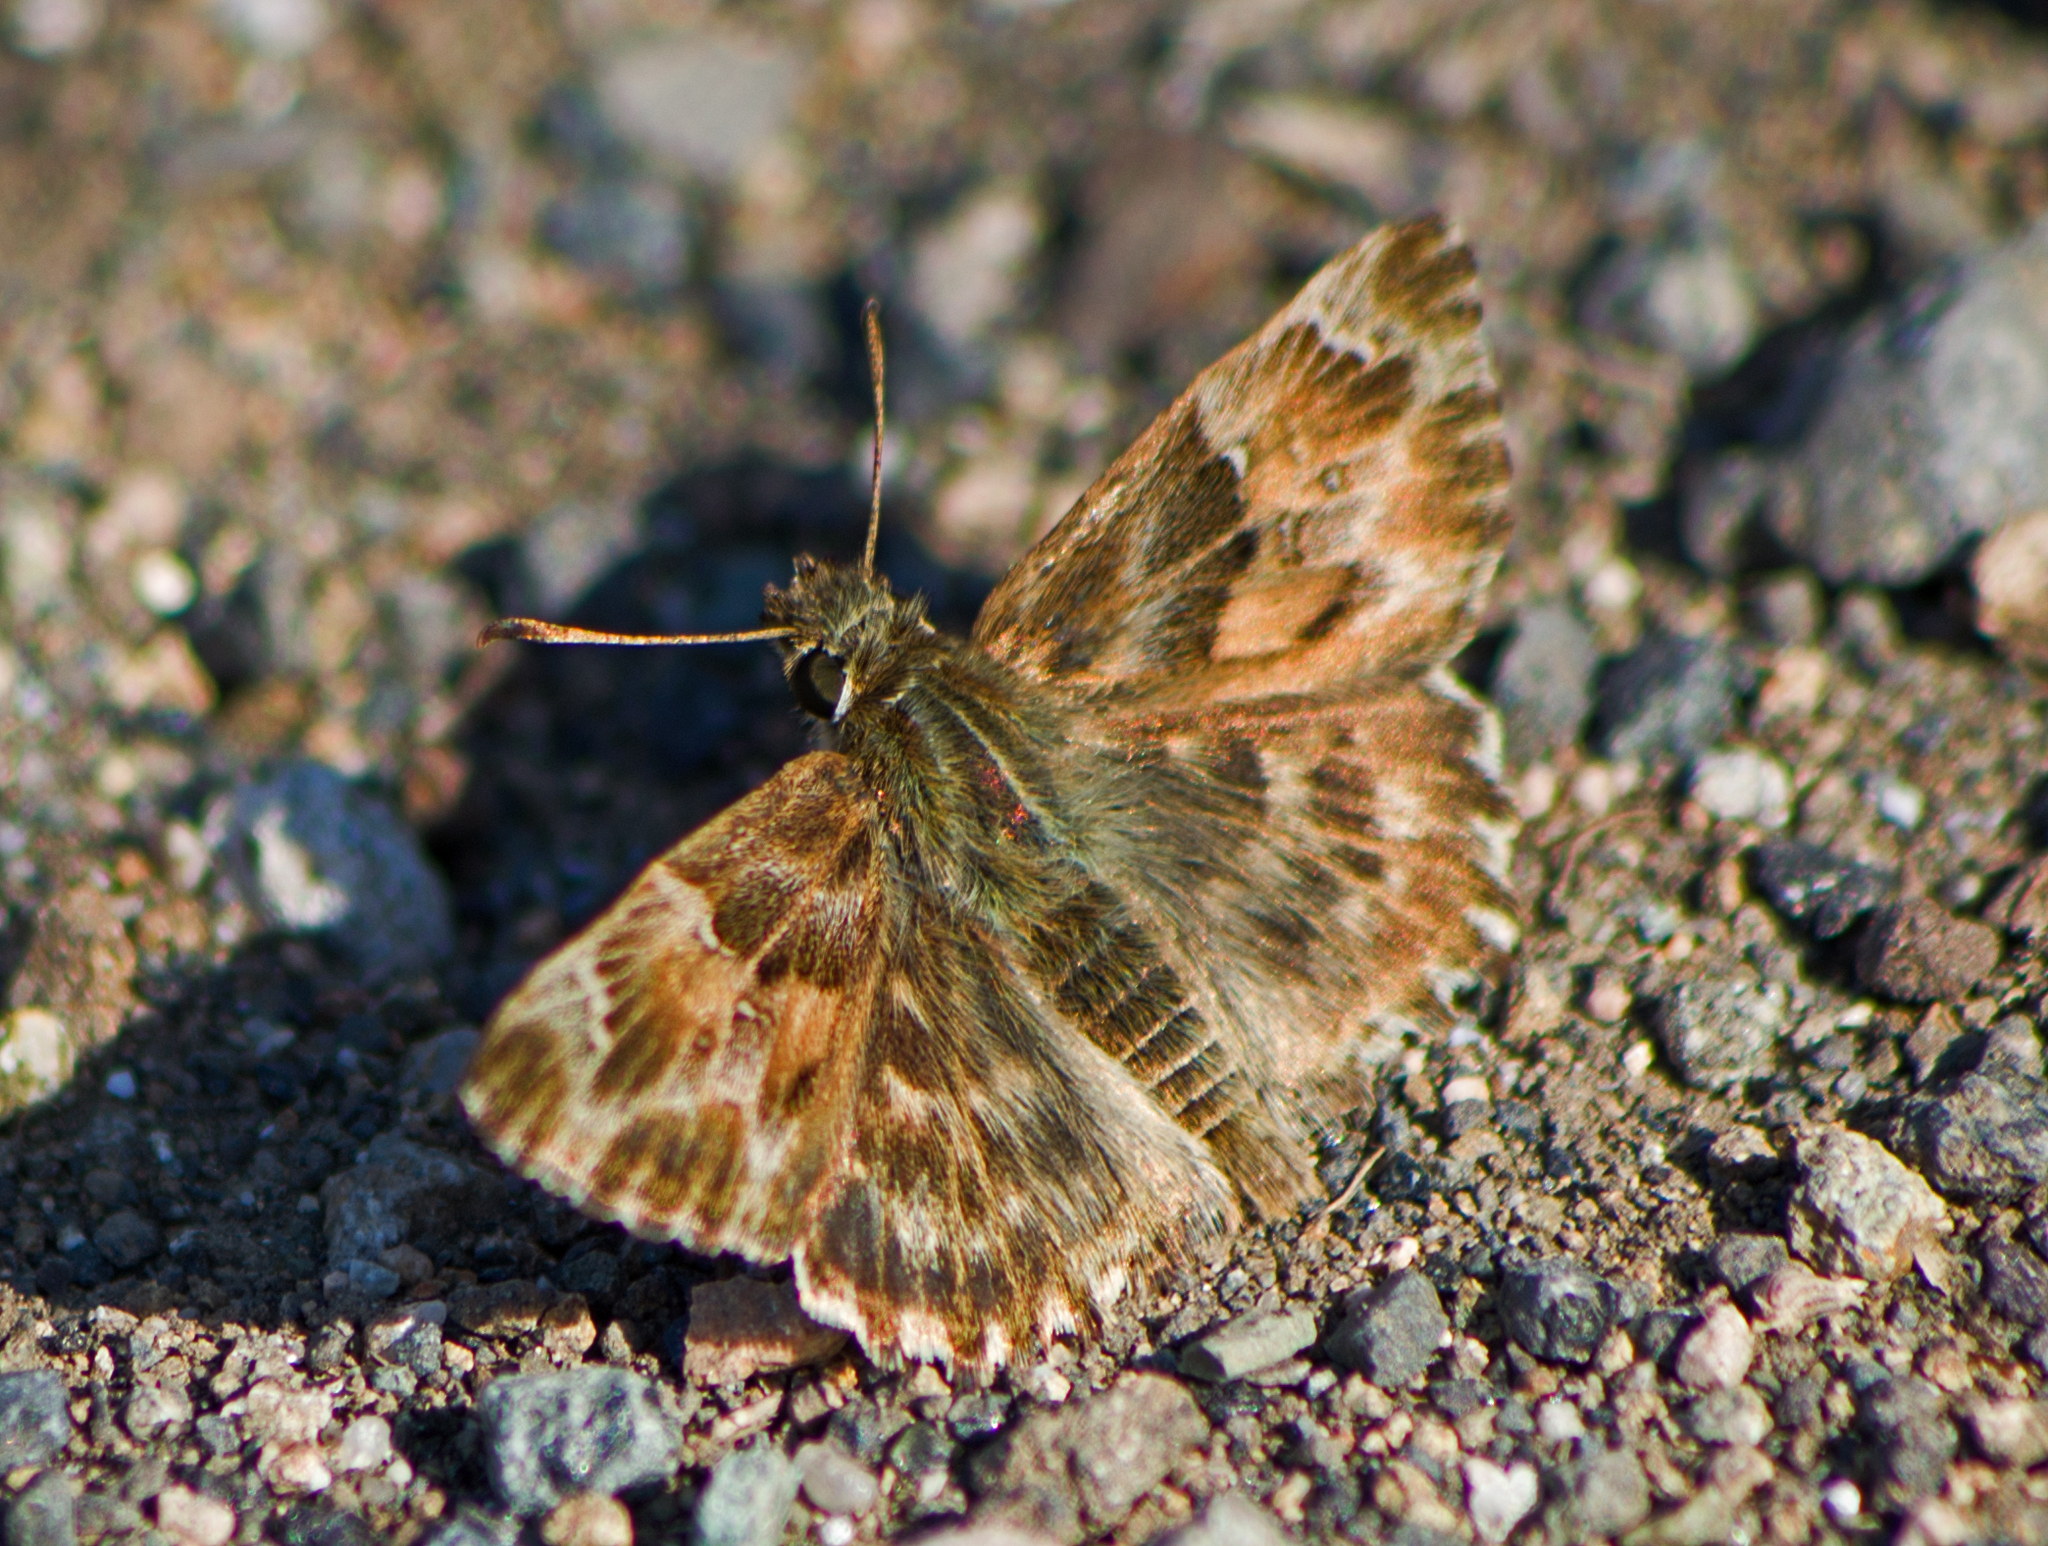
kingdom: Animalia
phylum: Arthropoda
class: Insecta
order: Lepidoptera
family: Hesperiidae
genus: Carcharodus
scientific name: Carcharodus alceae
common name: Mallow skipper
